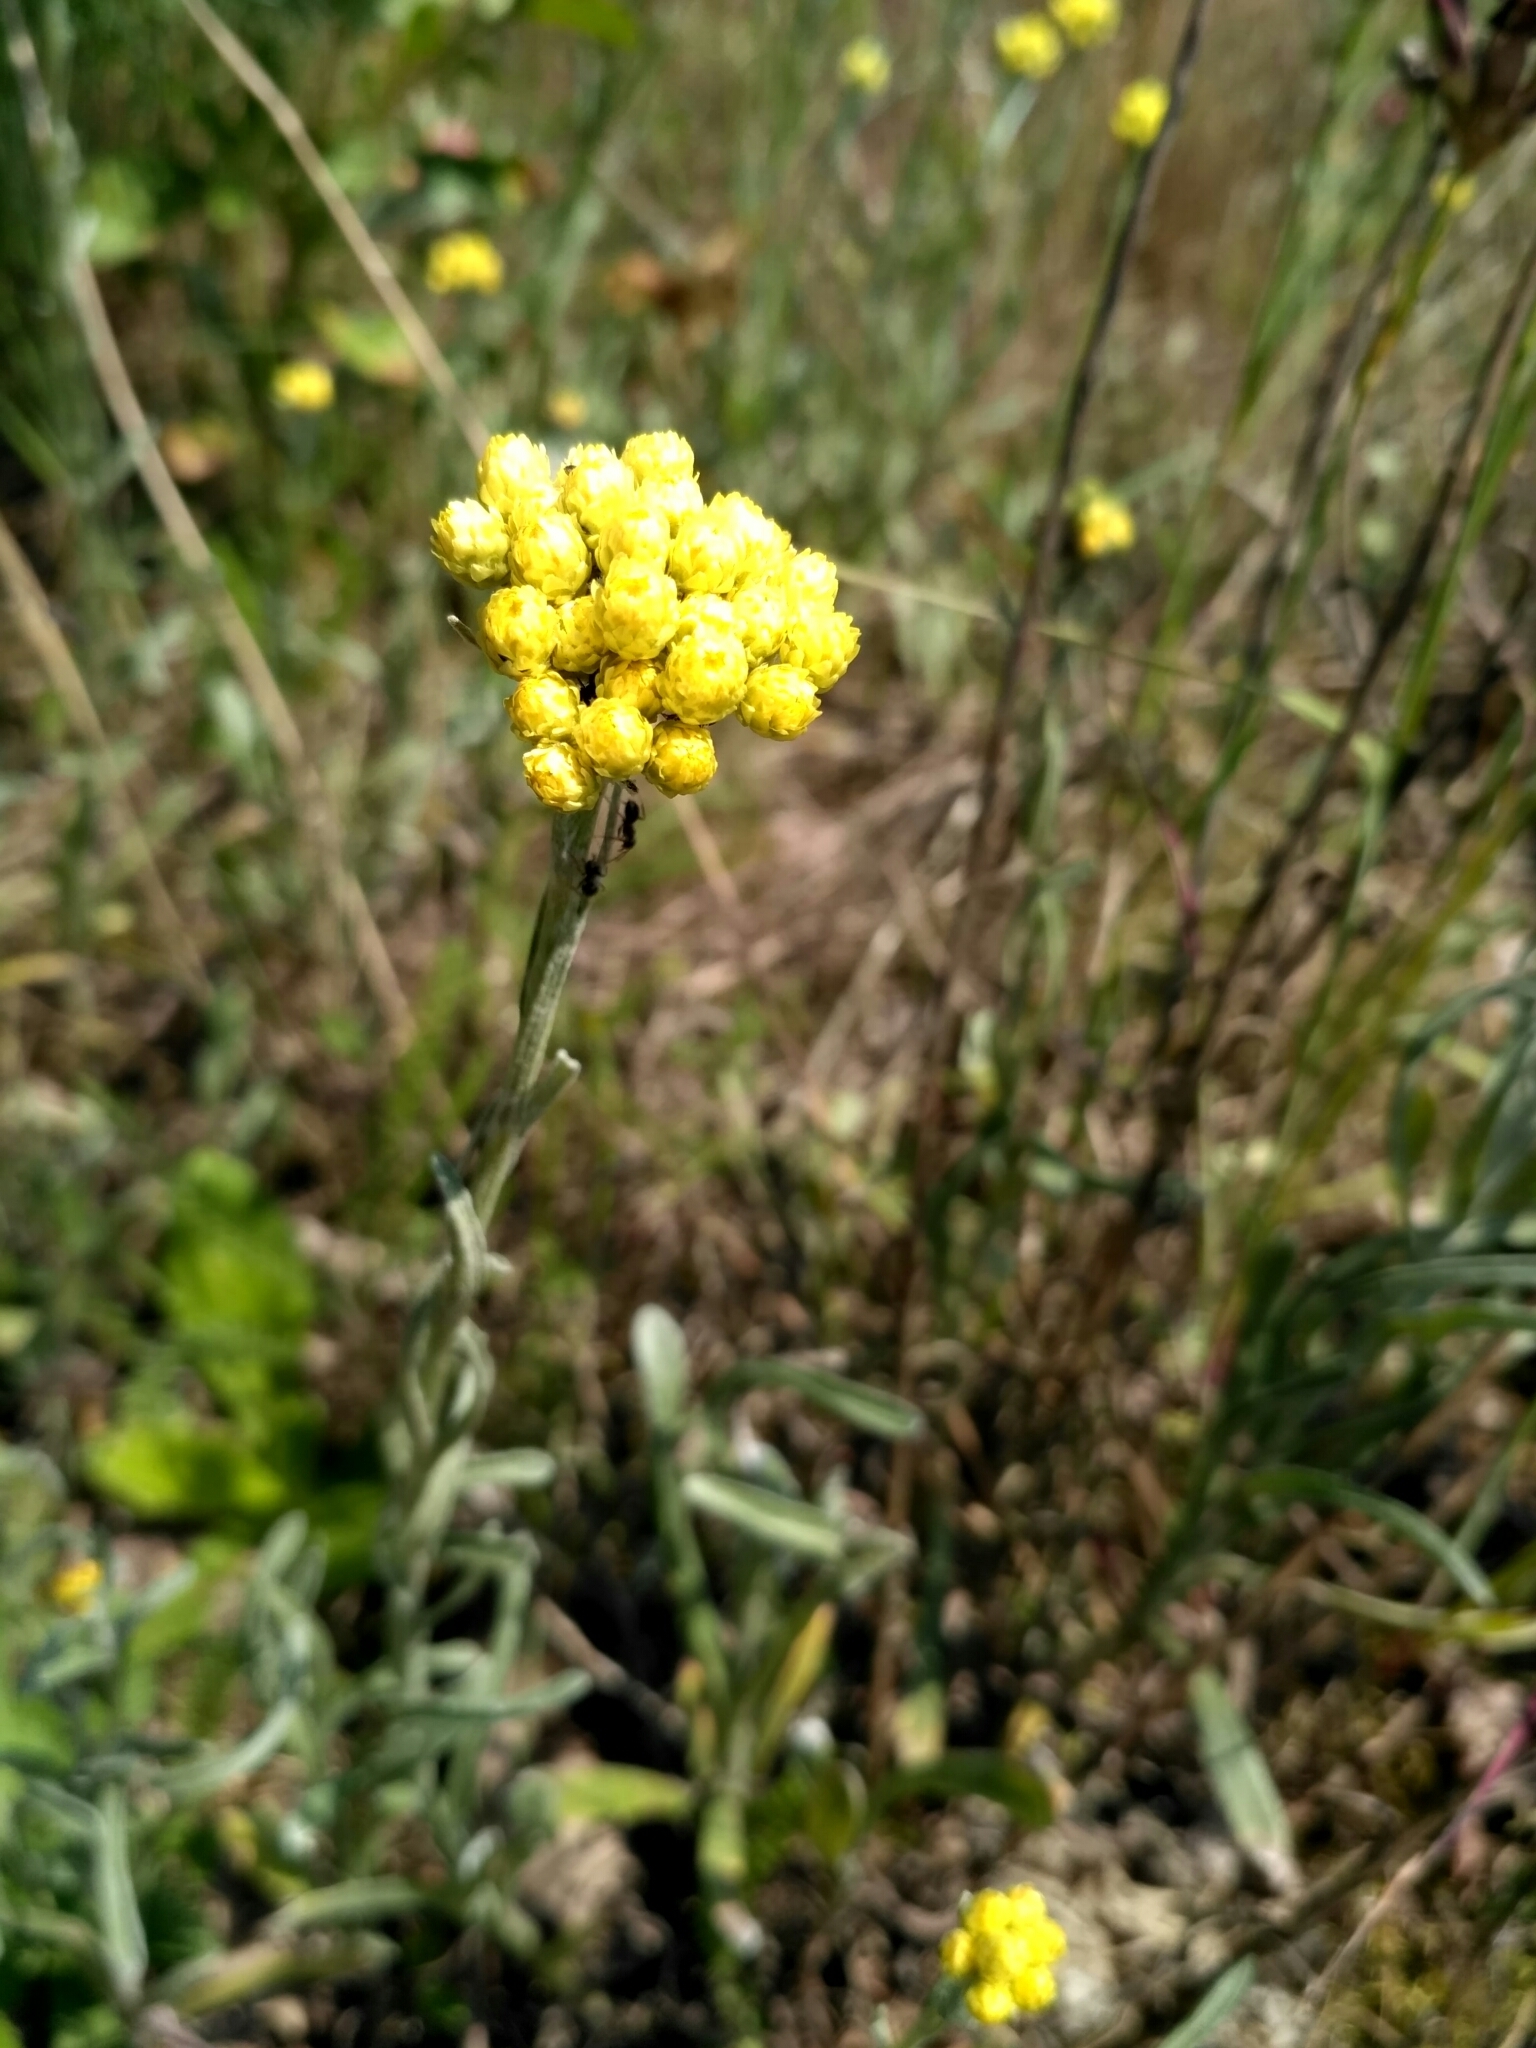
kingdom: Plantae
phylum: Tracheophyta
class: Magnoliopsida
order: Asterales
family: Asteraceae
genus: Helichrysum
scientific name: Helichrysum arenarium
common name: Strawflower
